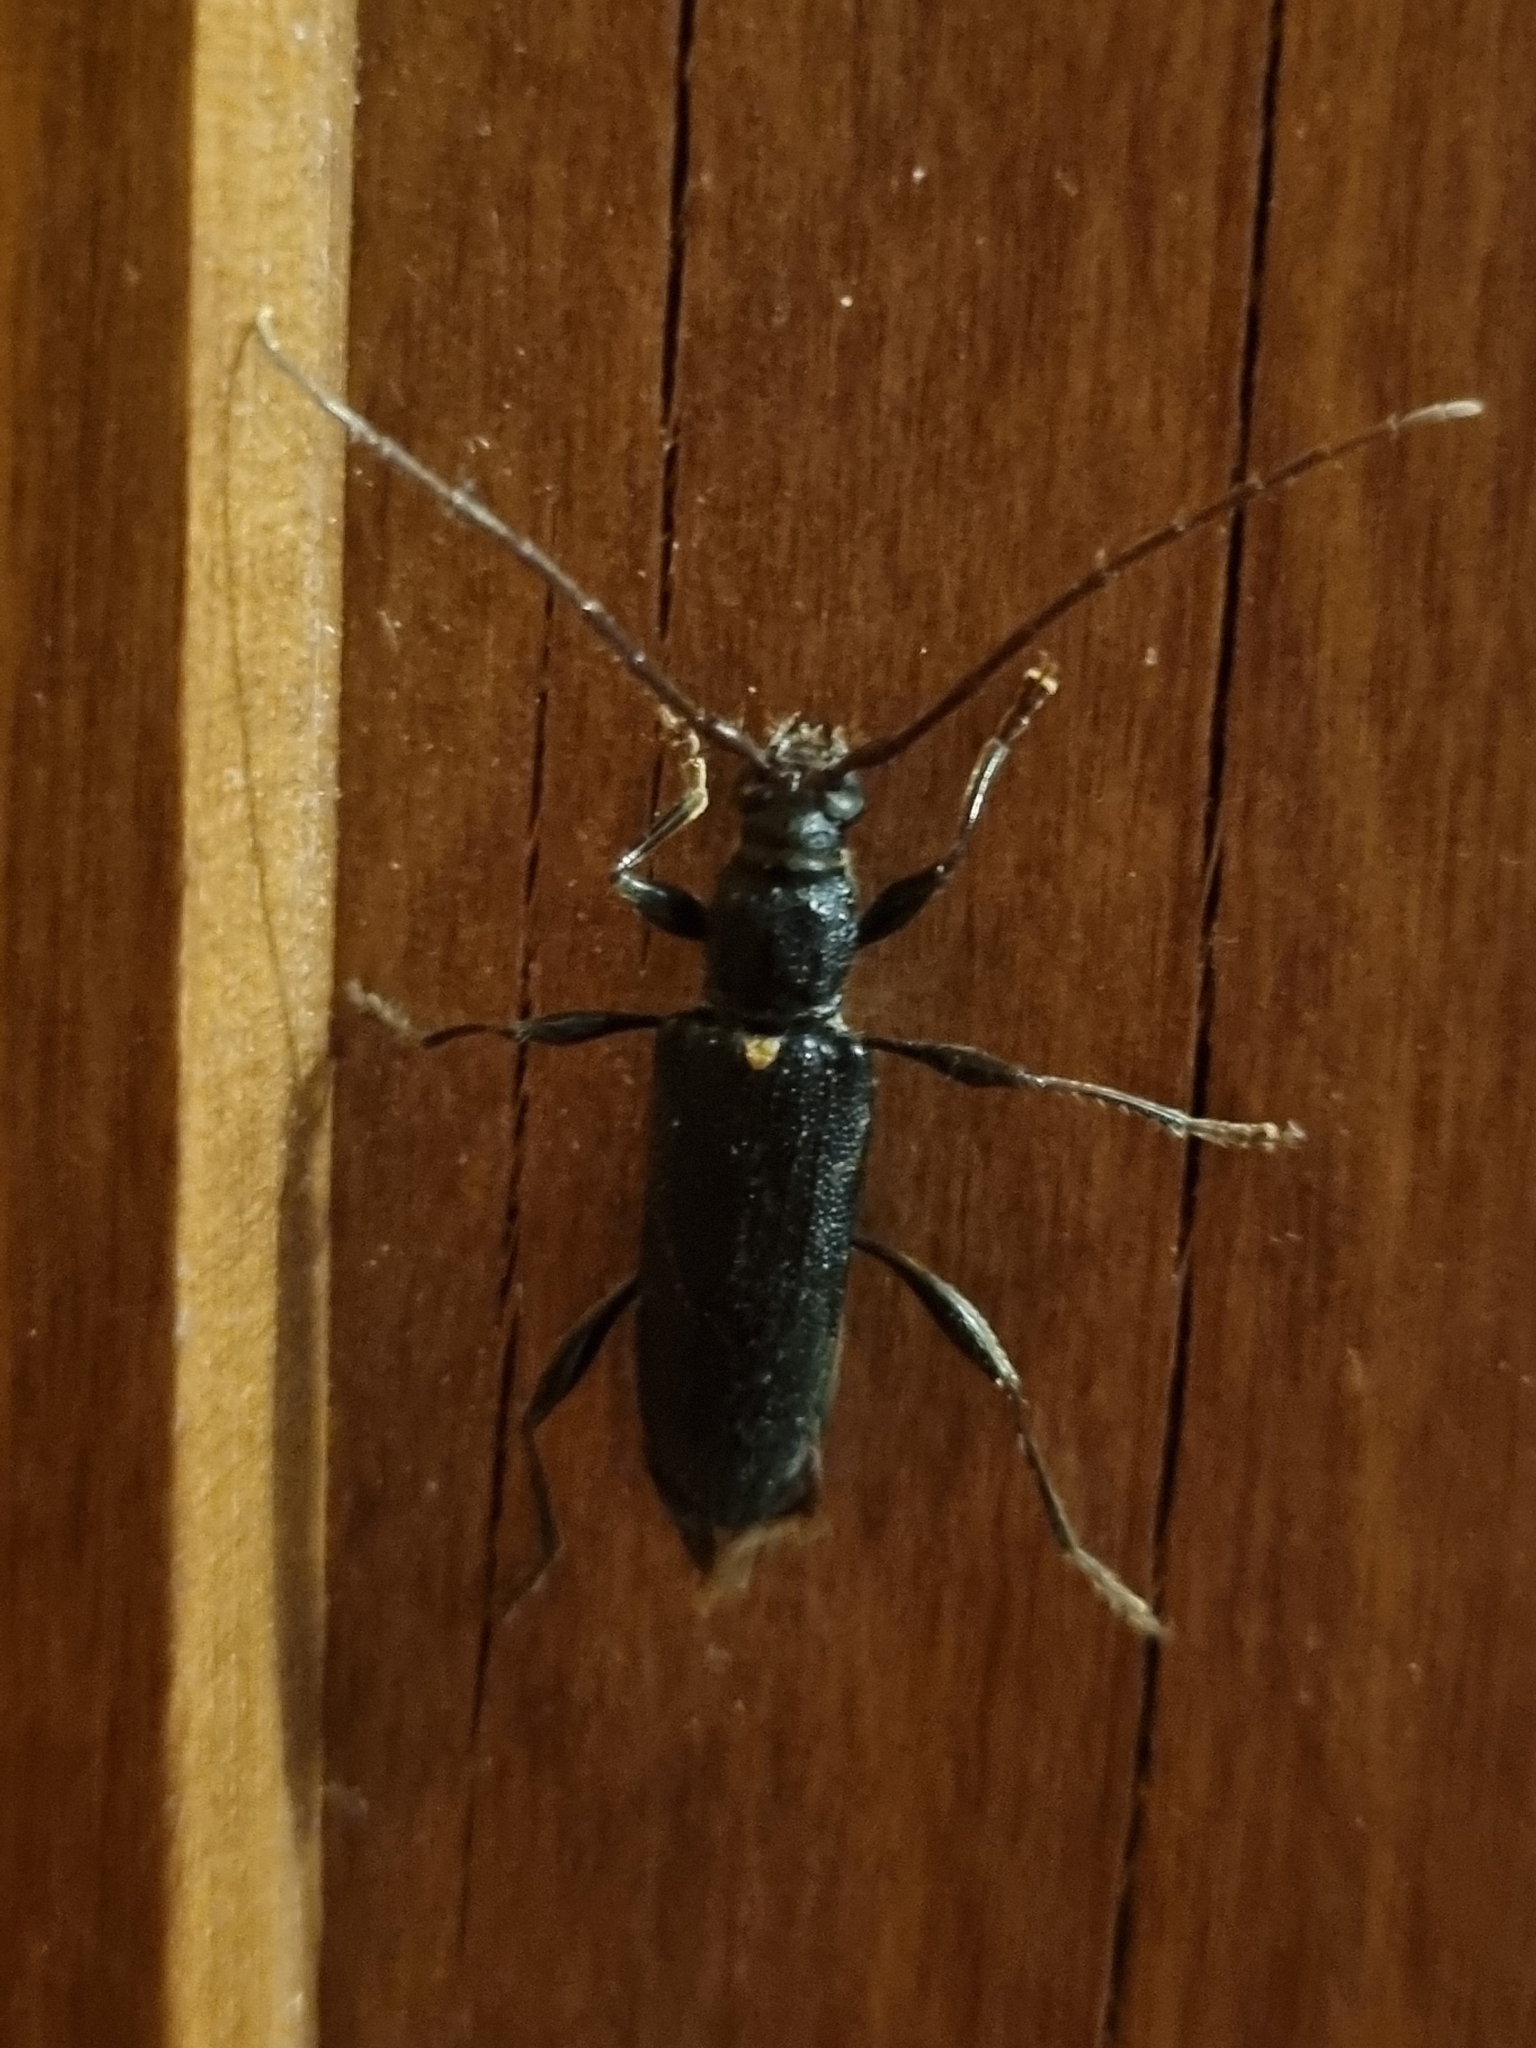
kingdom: Animalia
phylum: Arthropoda
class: Insecta
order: Coleoptera
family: Cerambycidae
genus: Callidiopis
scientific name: Callidiopis scutellaris
